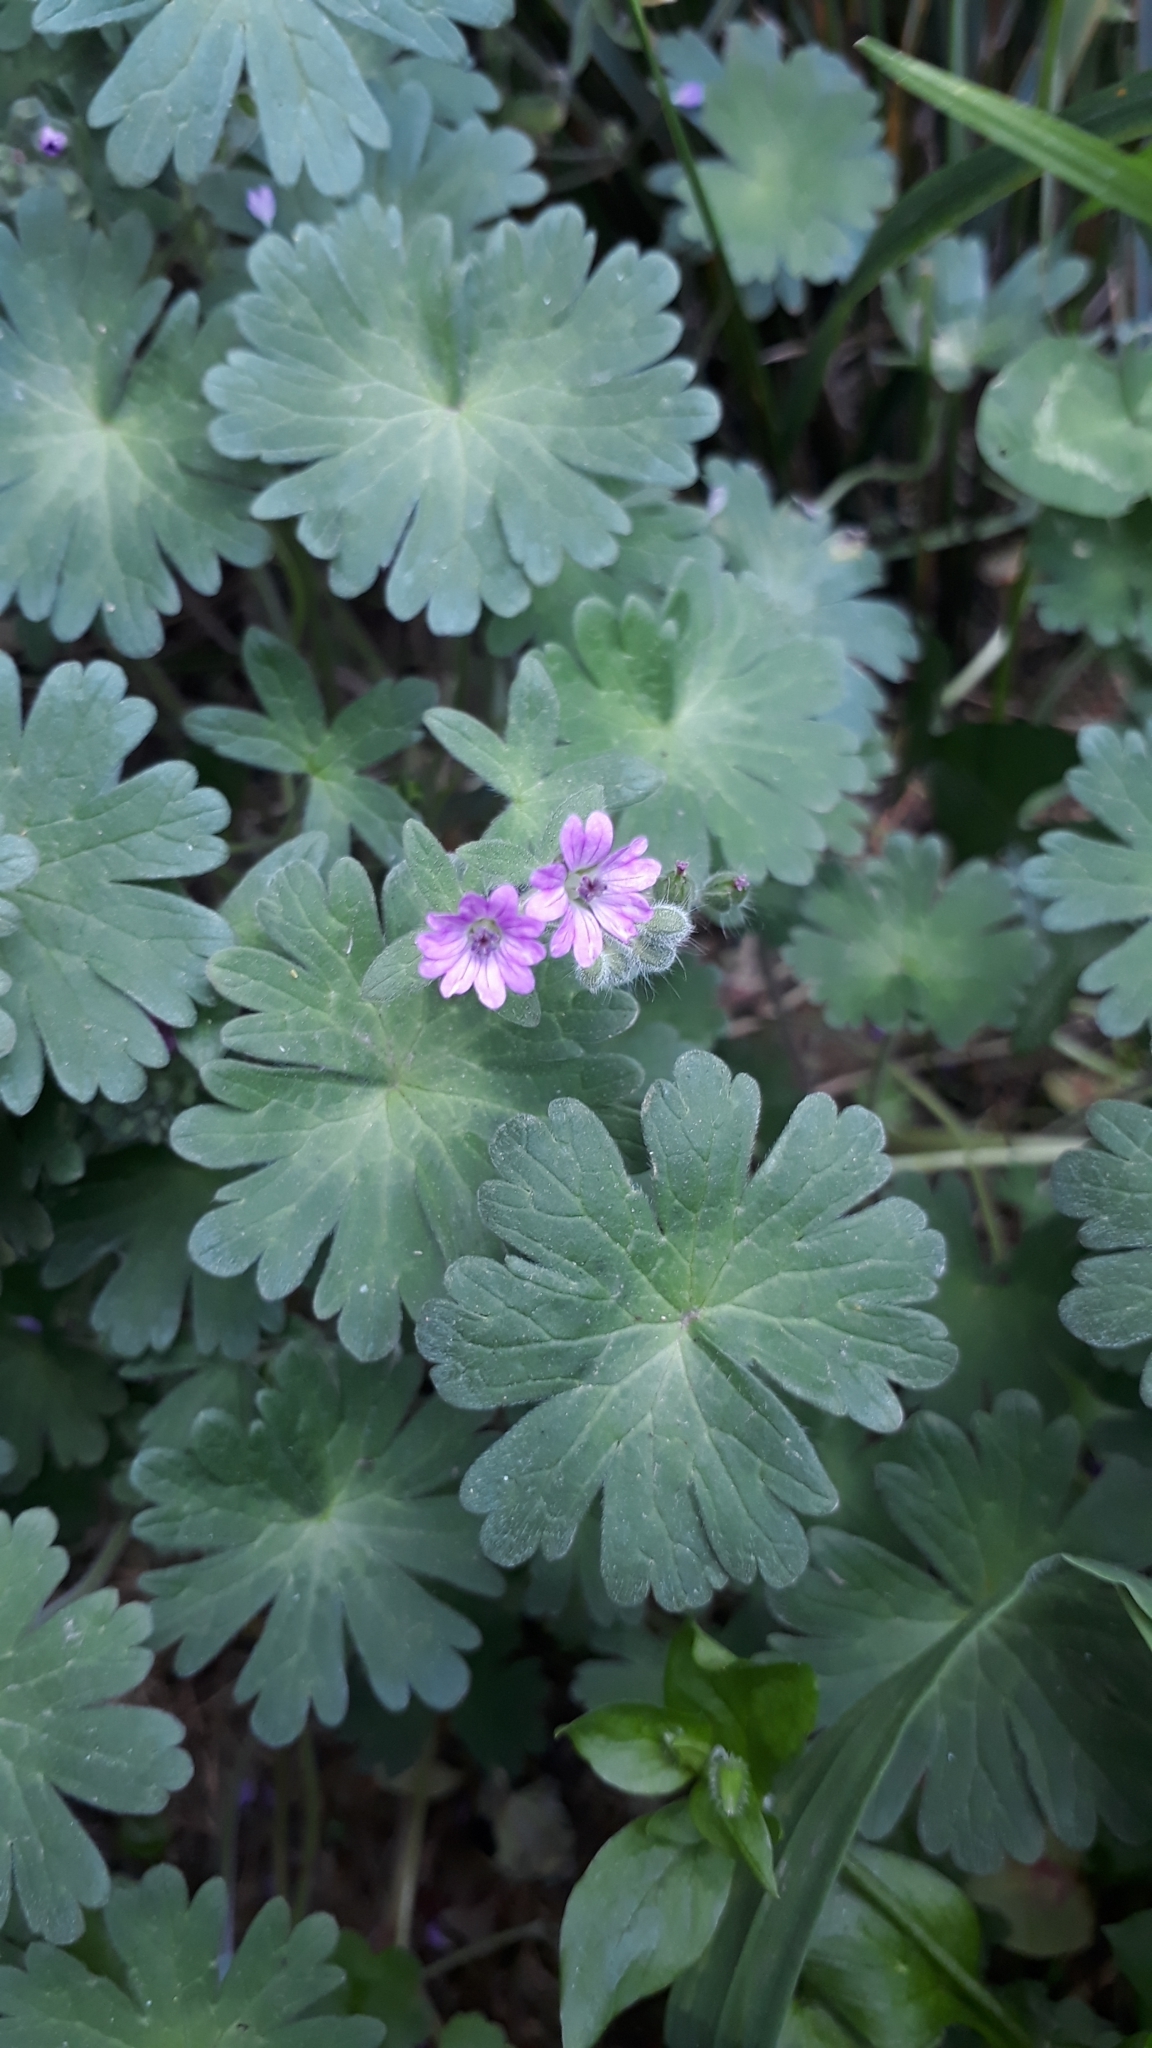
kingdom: Plantae
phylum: Tracheophyta
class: Magnoliopsida
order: Geraniales
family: Geraniaceae
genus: Geranium
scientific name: Geranium molle
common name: Dove's-foot crane's-bill
